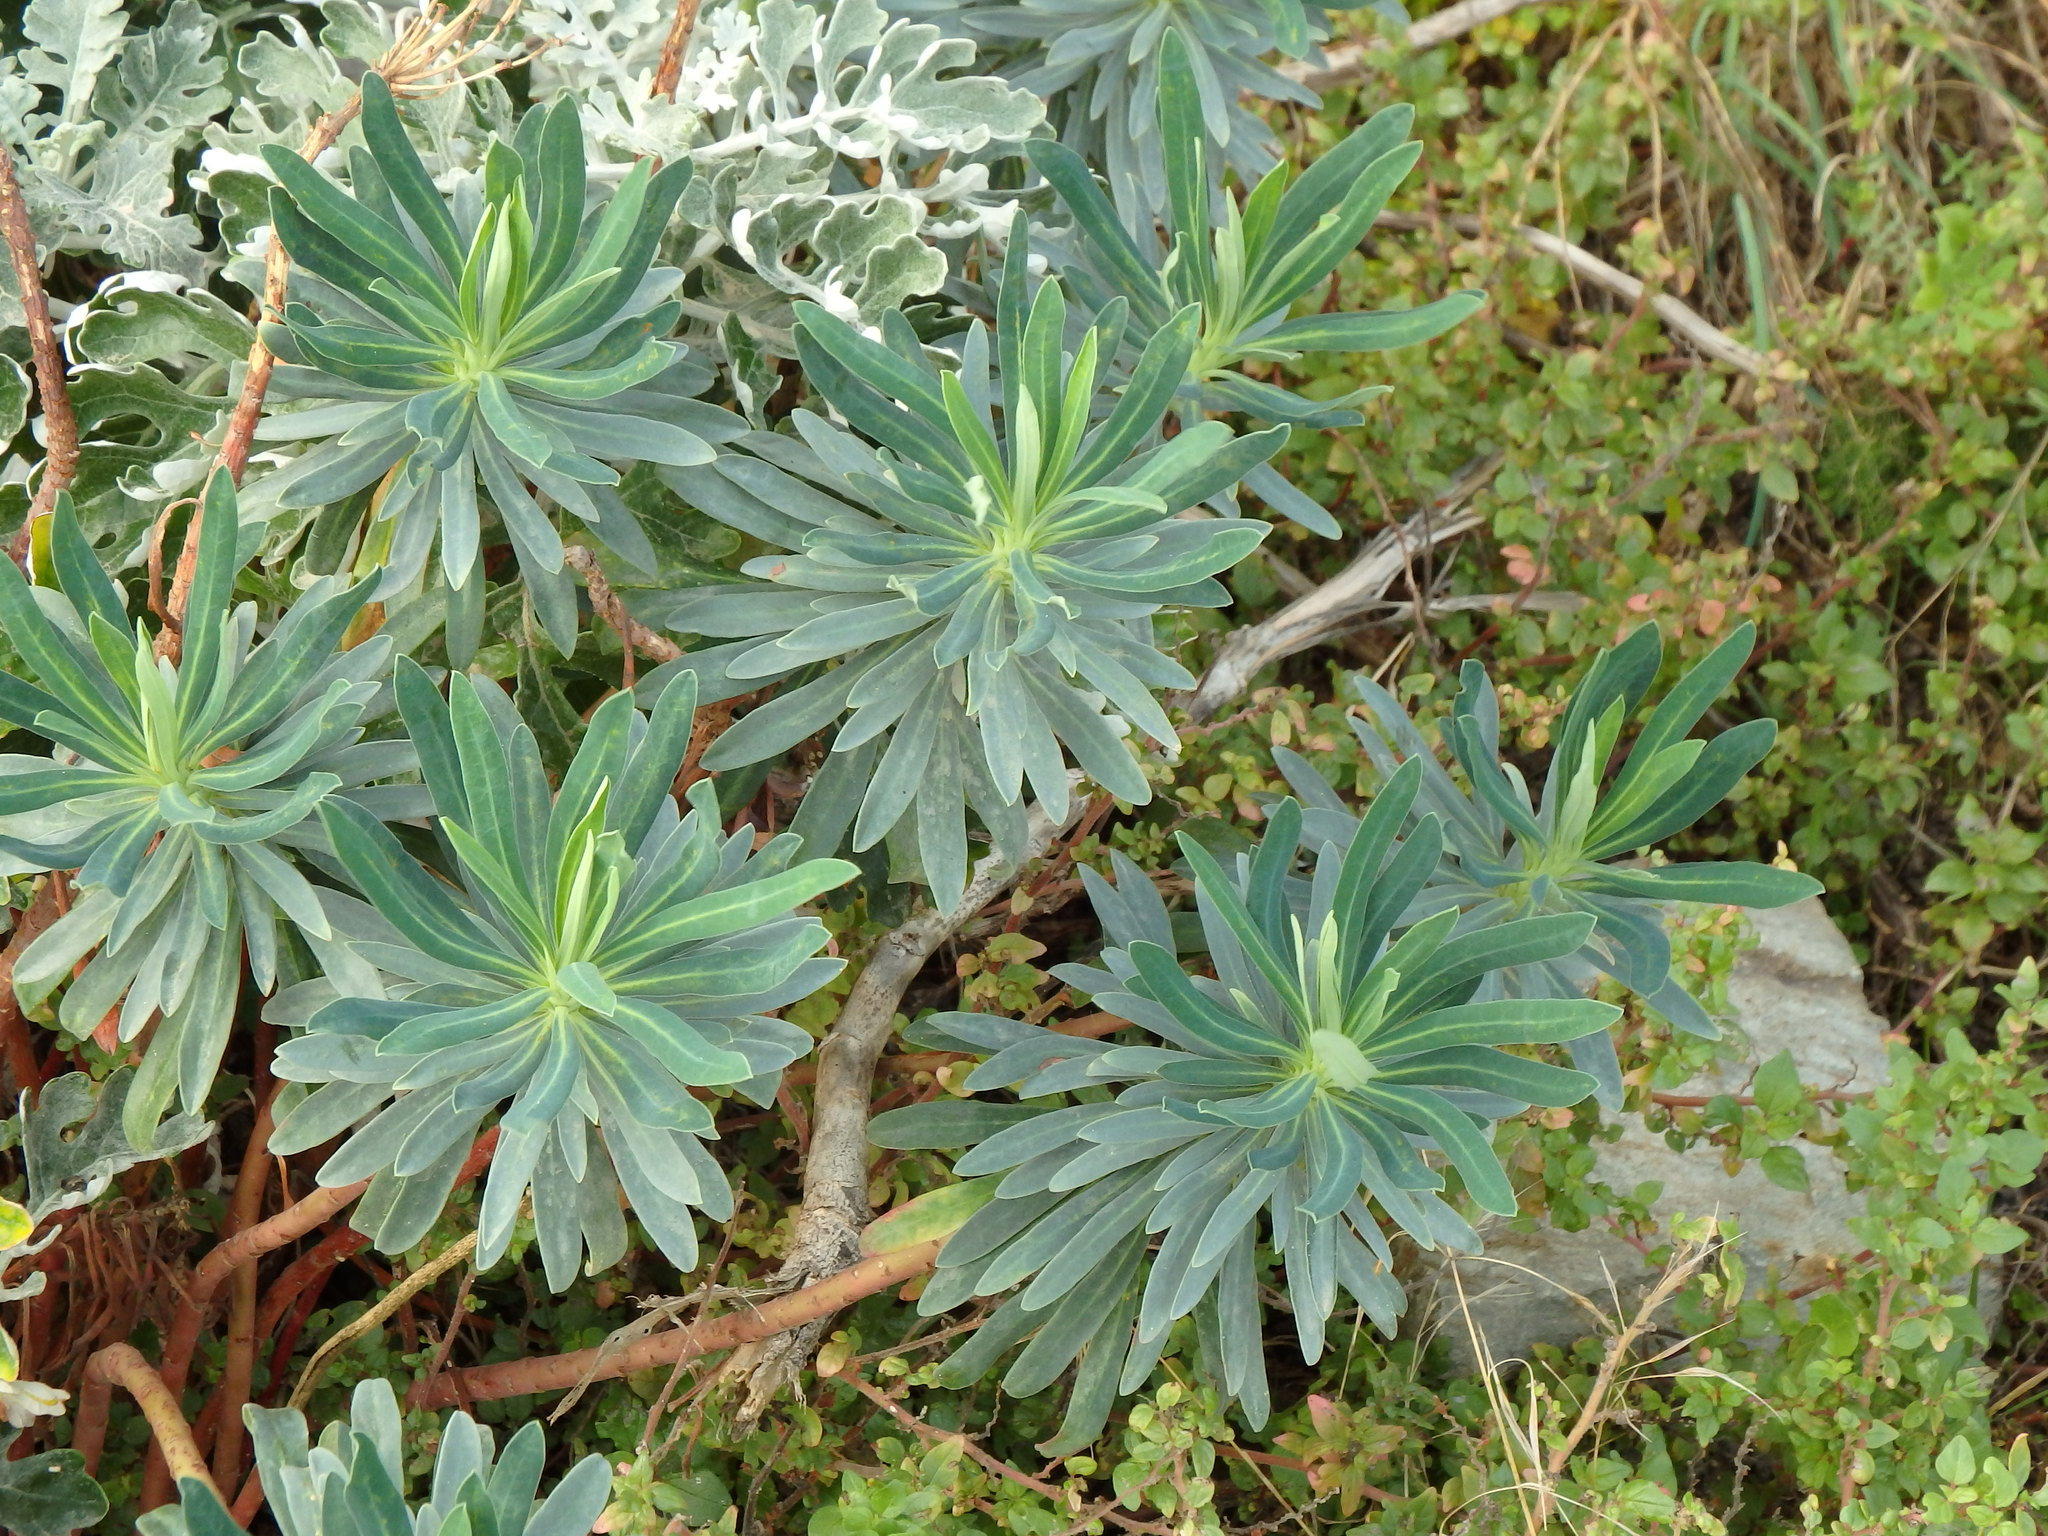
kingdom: Plantae
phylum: Tracheophyta
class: Magnoliopsida
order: Malpighiales
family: Euphorbiaceae
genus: Euphorbia
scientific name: Euphorbia characias
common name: Mediterranean spurge
